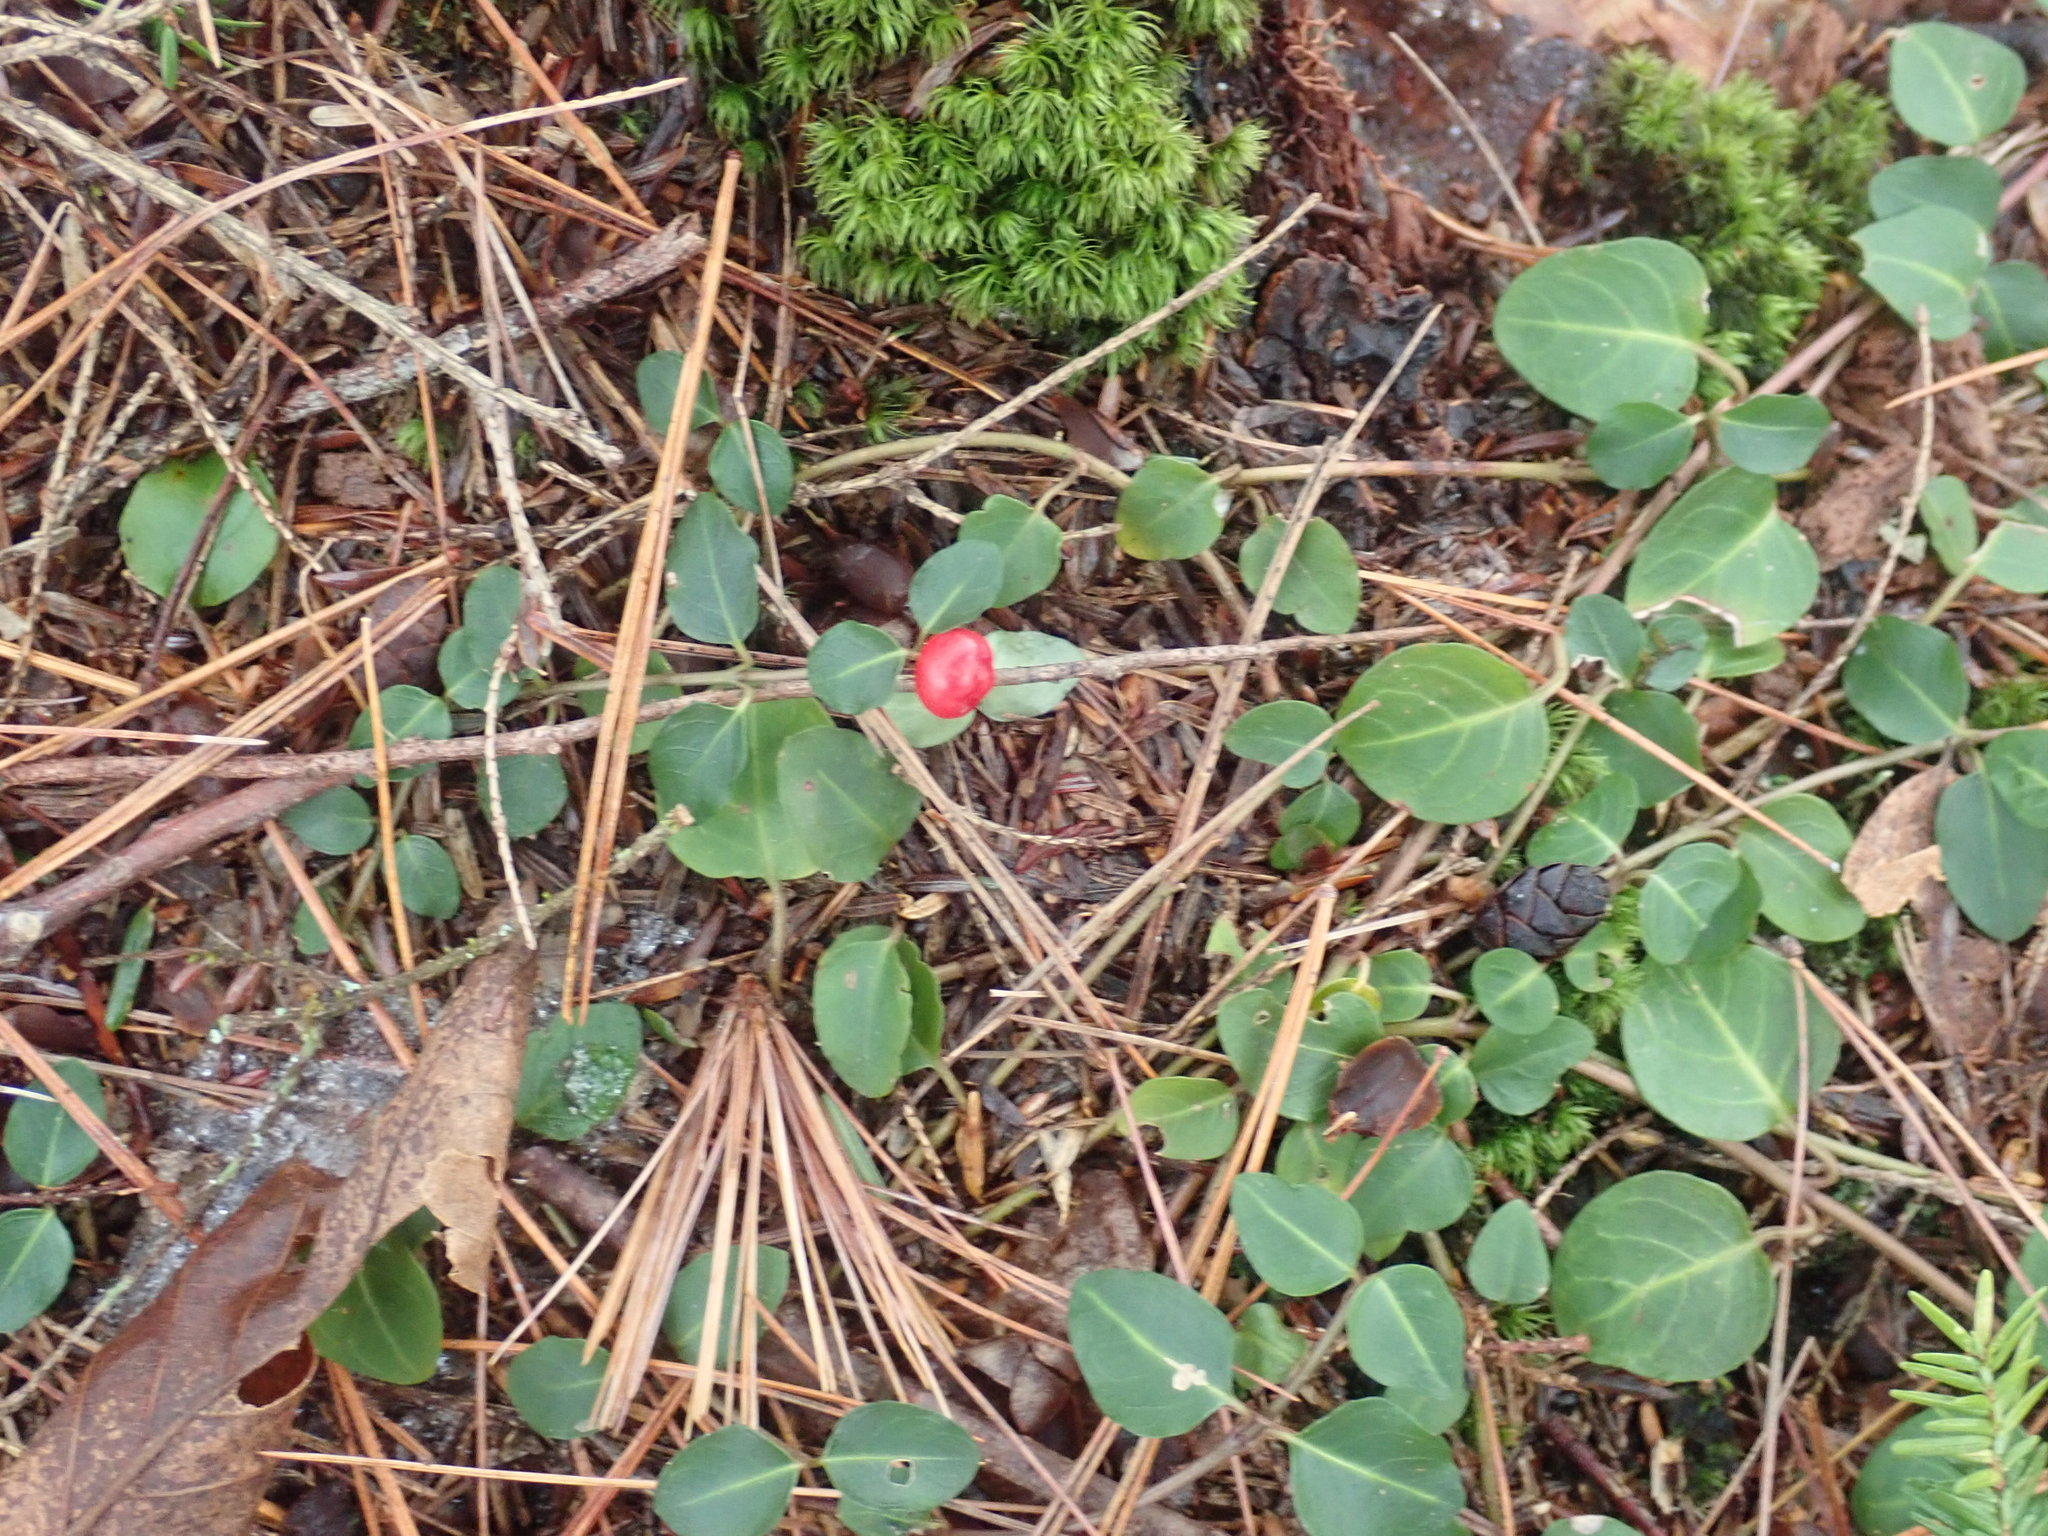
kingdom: Plantae
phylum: Tracheophyta
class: Magnoliopsida
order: Gentianales
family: Rubiaceae
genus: Mitchella
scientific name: Mitchella repens
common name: Partridge-berry
